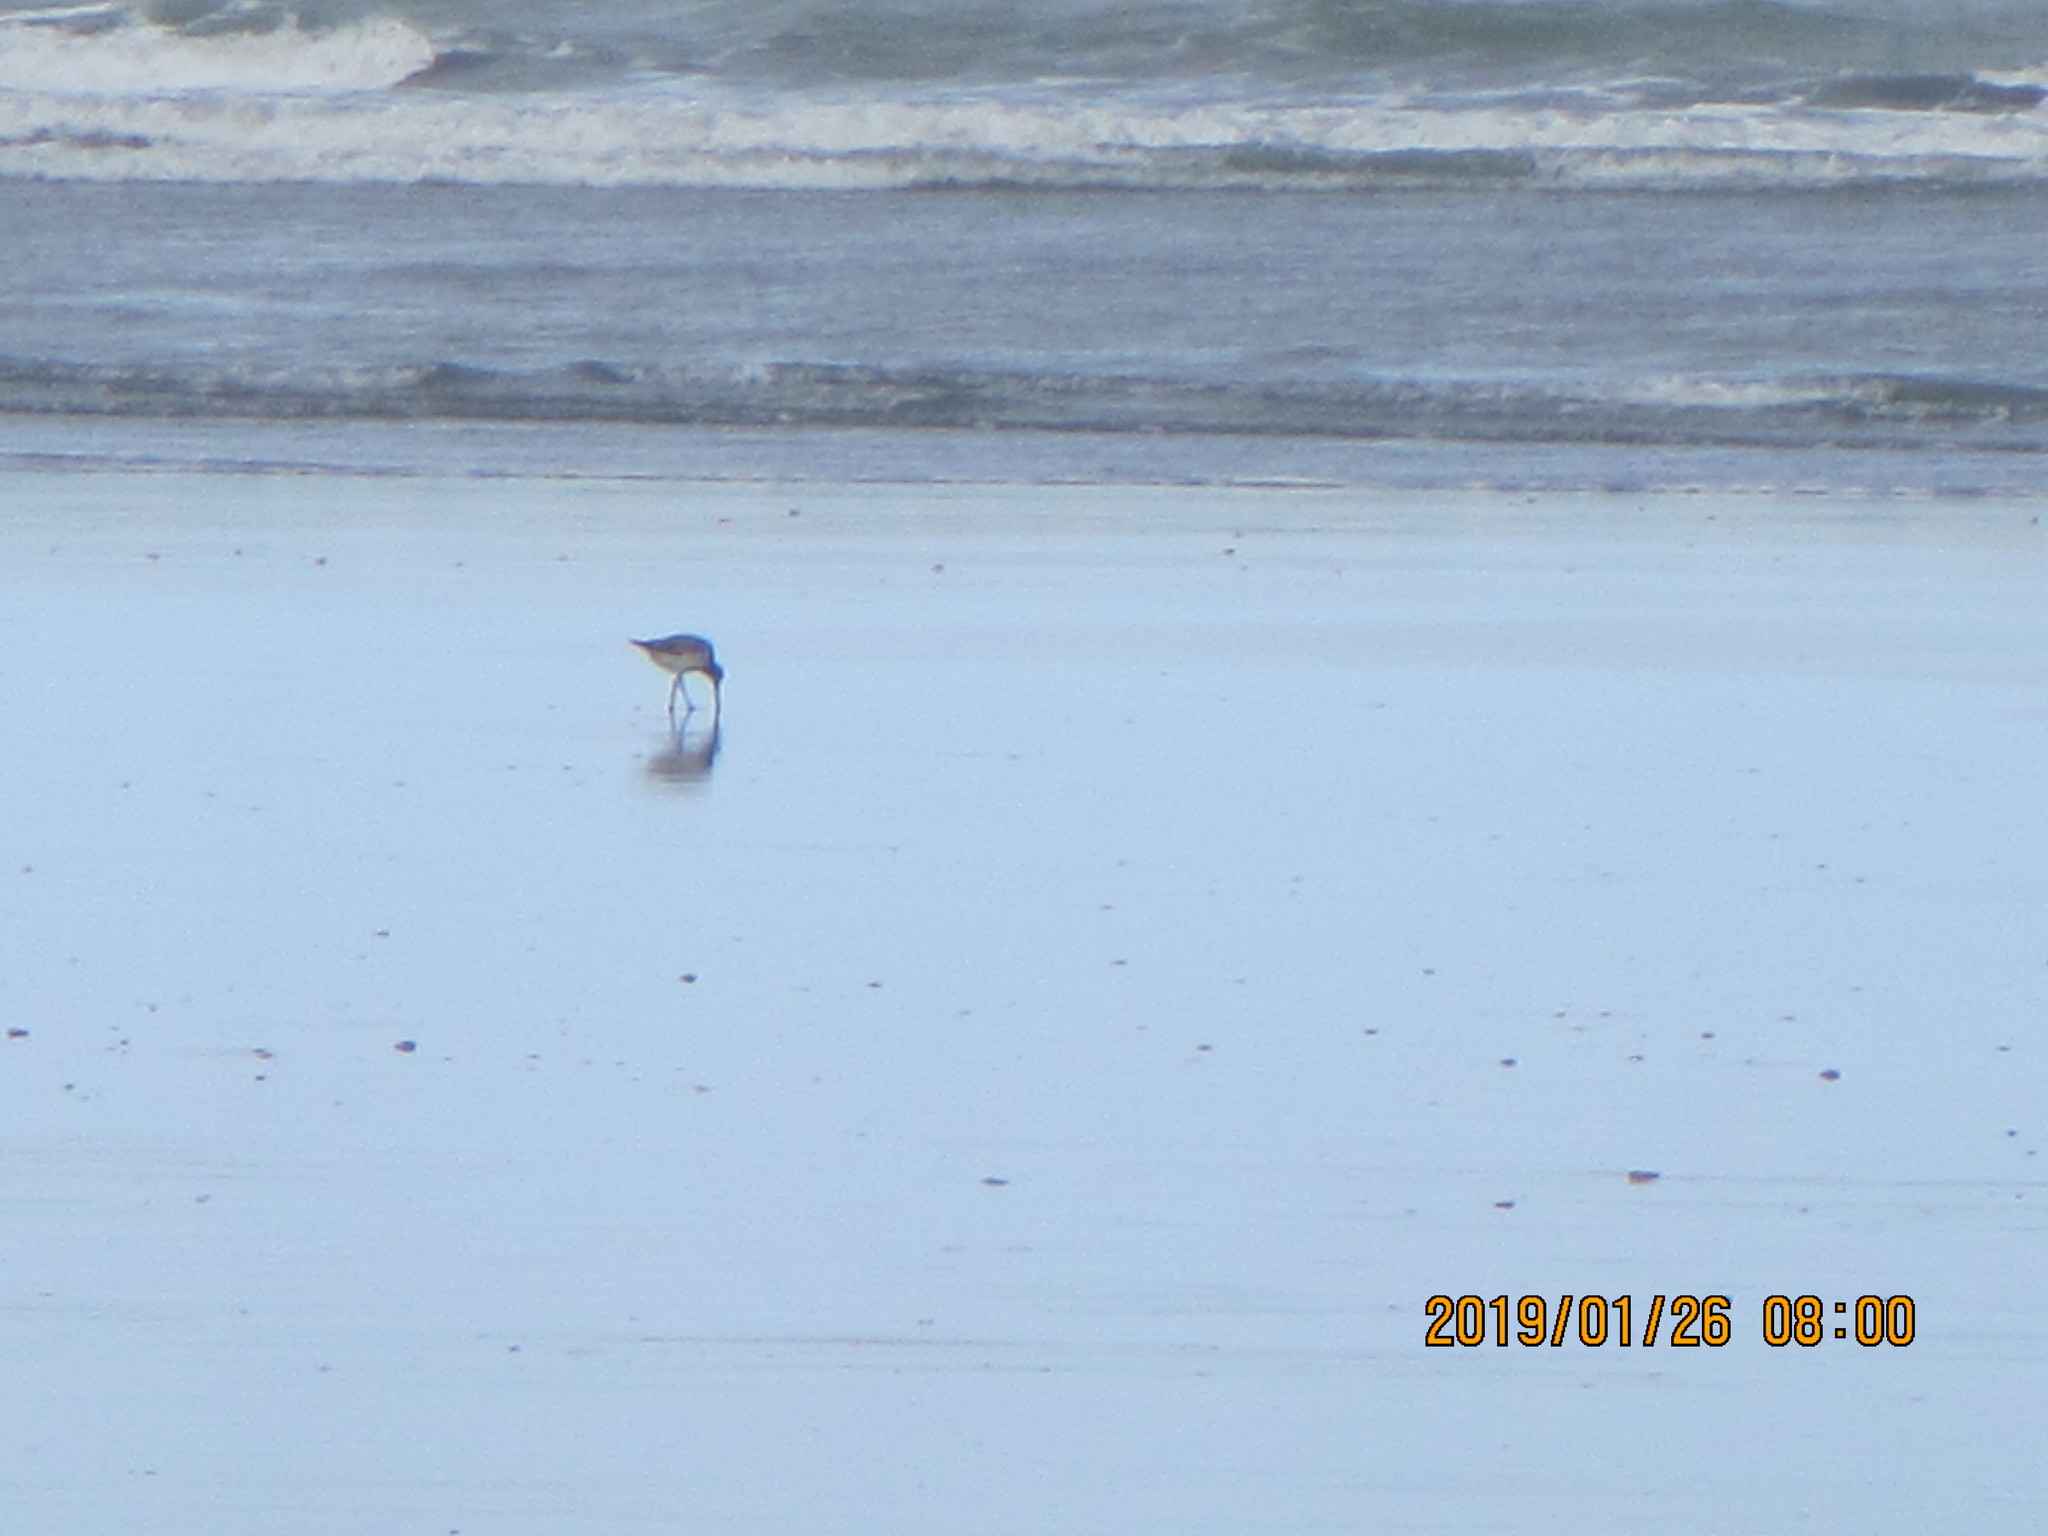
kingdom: Animalia
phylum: Chordata
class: Aves
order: Charadriiformes
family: Scolopacidae
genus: Limosa
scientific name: Limosa lapponica
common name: Bar-tailed godwit
